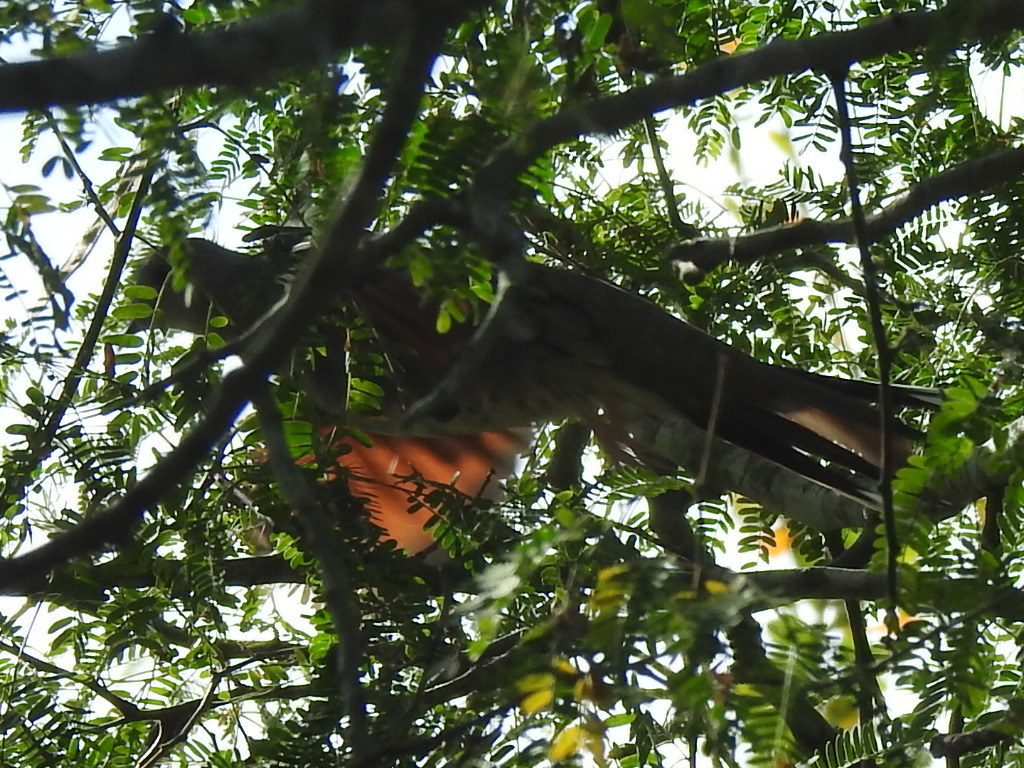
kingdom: Animalia
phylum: Chordata
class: Aves
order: Columbiformes
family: Columbidae
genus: Columbina
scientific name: Columbina inca
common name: Inca dove
